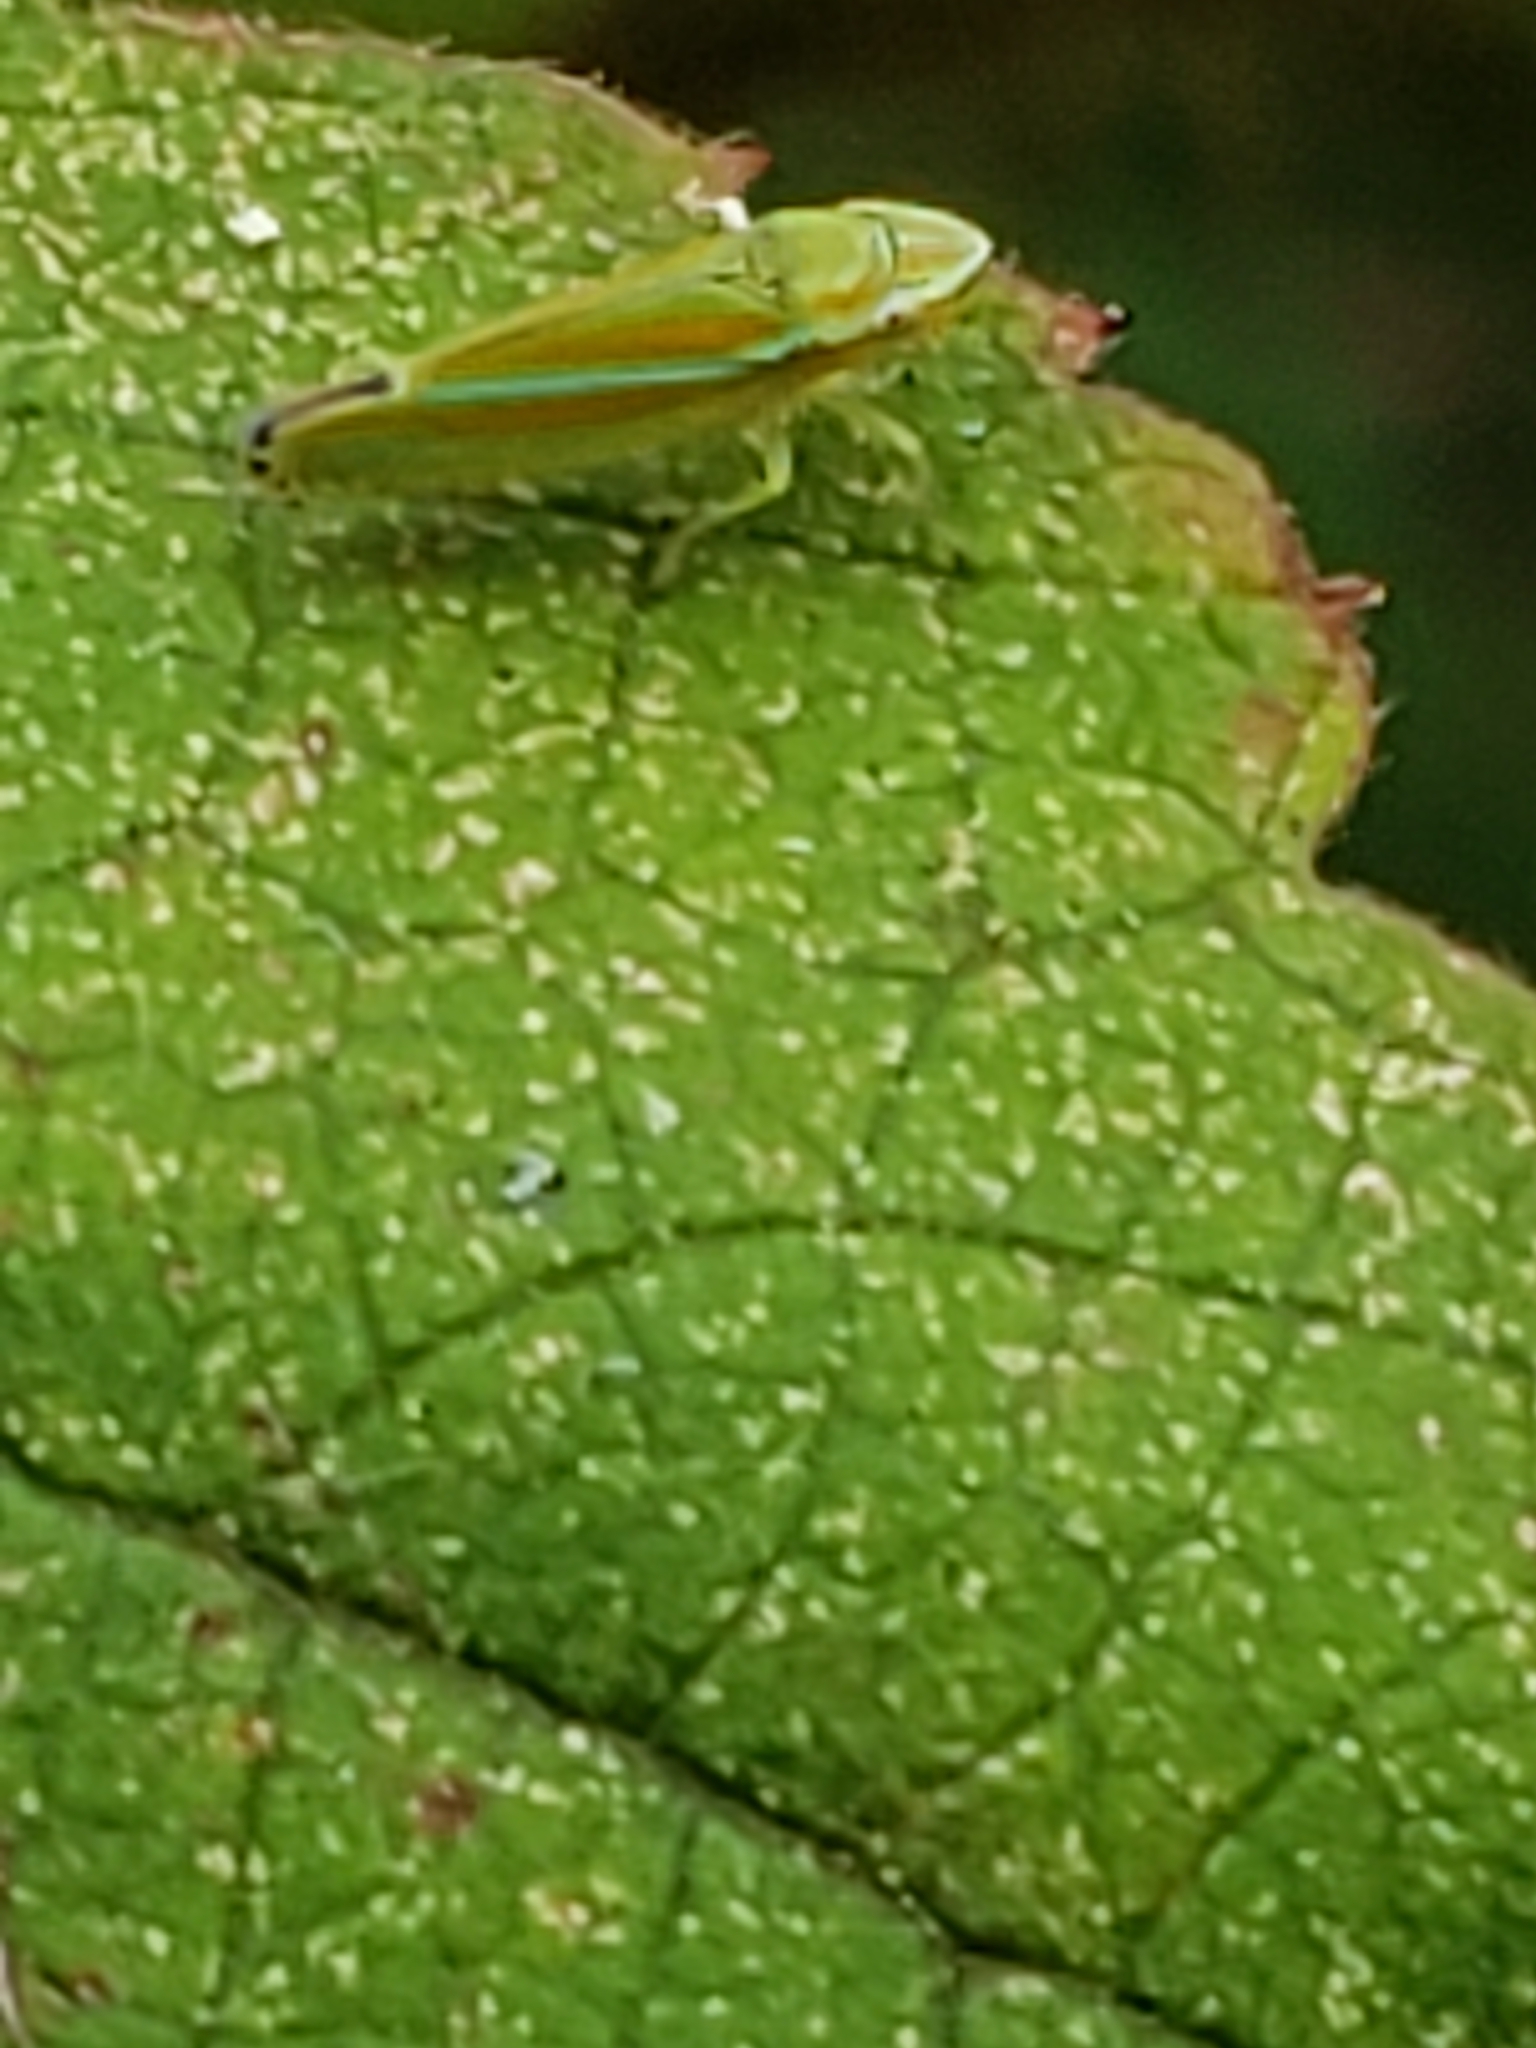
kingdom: Animalia
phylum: Arthropoda
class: Insecta
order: Hemiptera
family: Cicadellidae
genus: Graphocephala
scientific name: Graphocephala versuta
